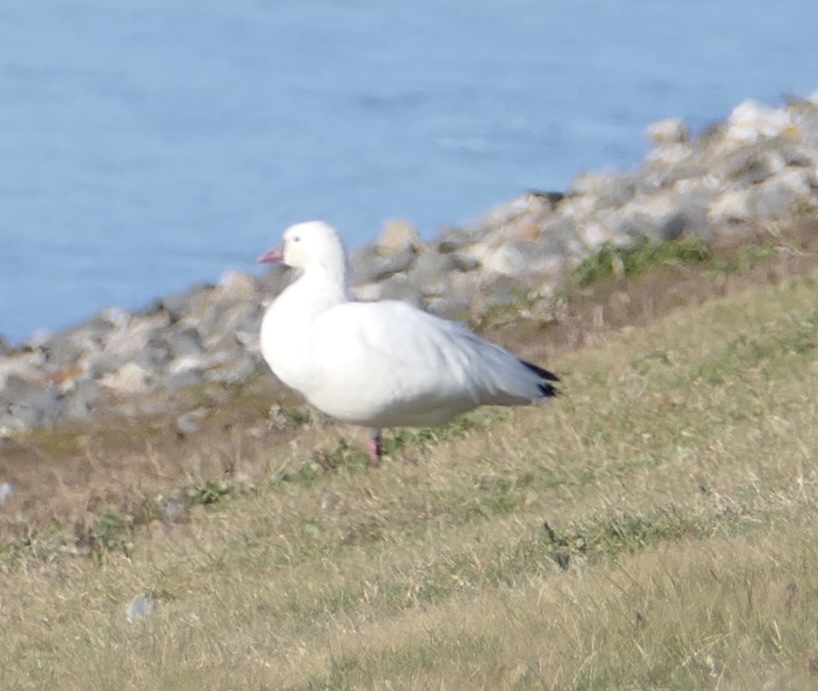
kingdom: Animalia
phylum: Chordata
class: Aves
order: Anseriformes
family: Anatidae
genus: Anser
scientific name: Anser rossii
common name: Ross's goose
